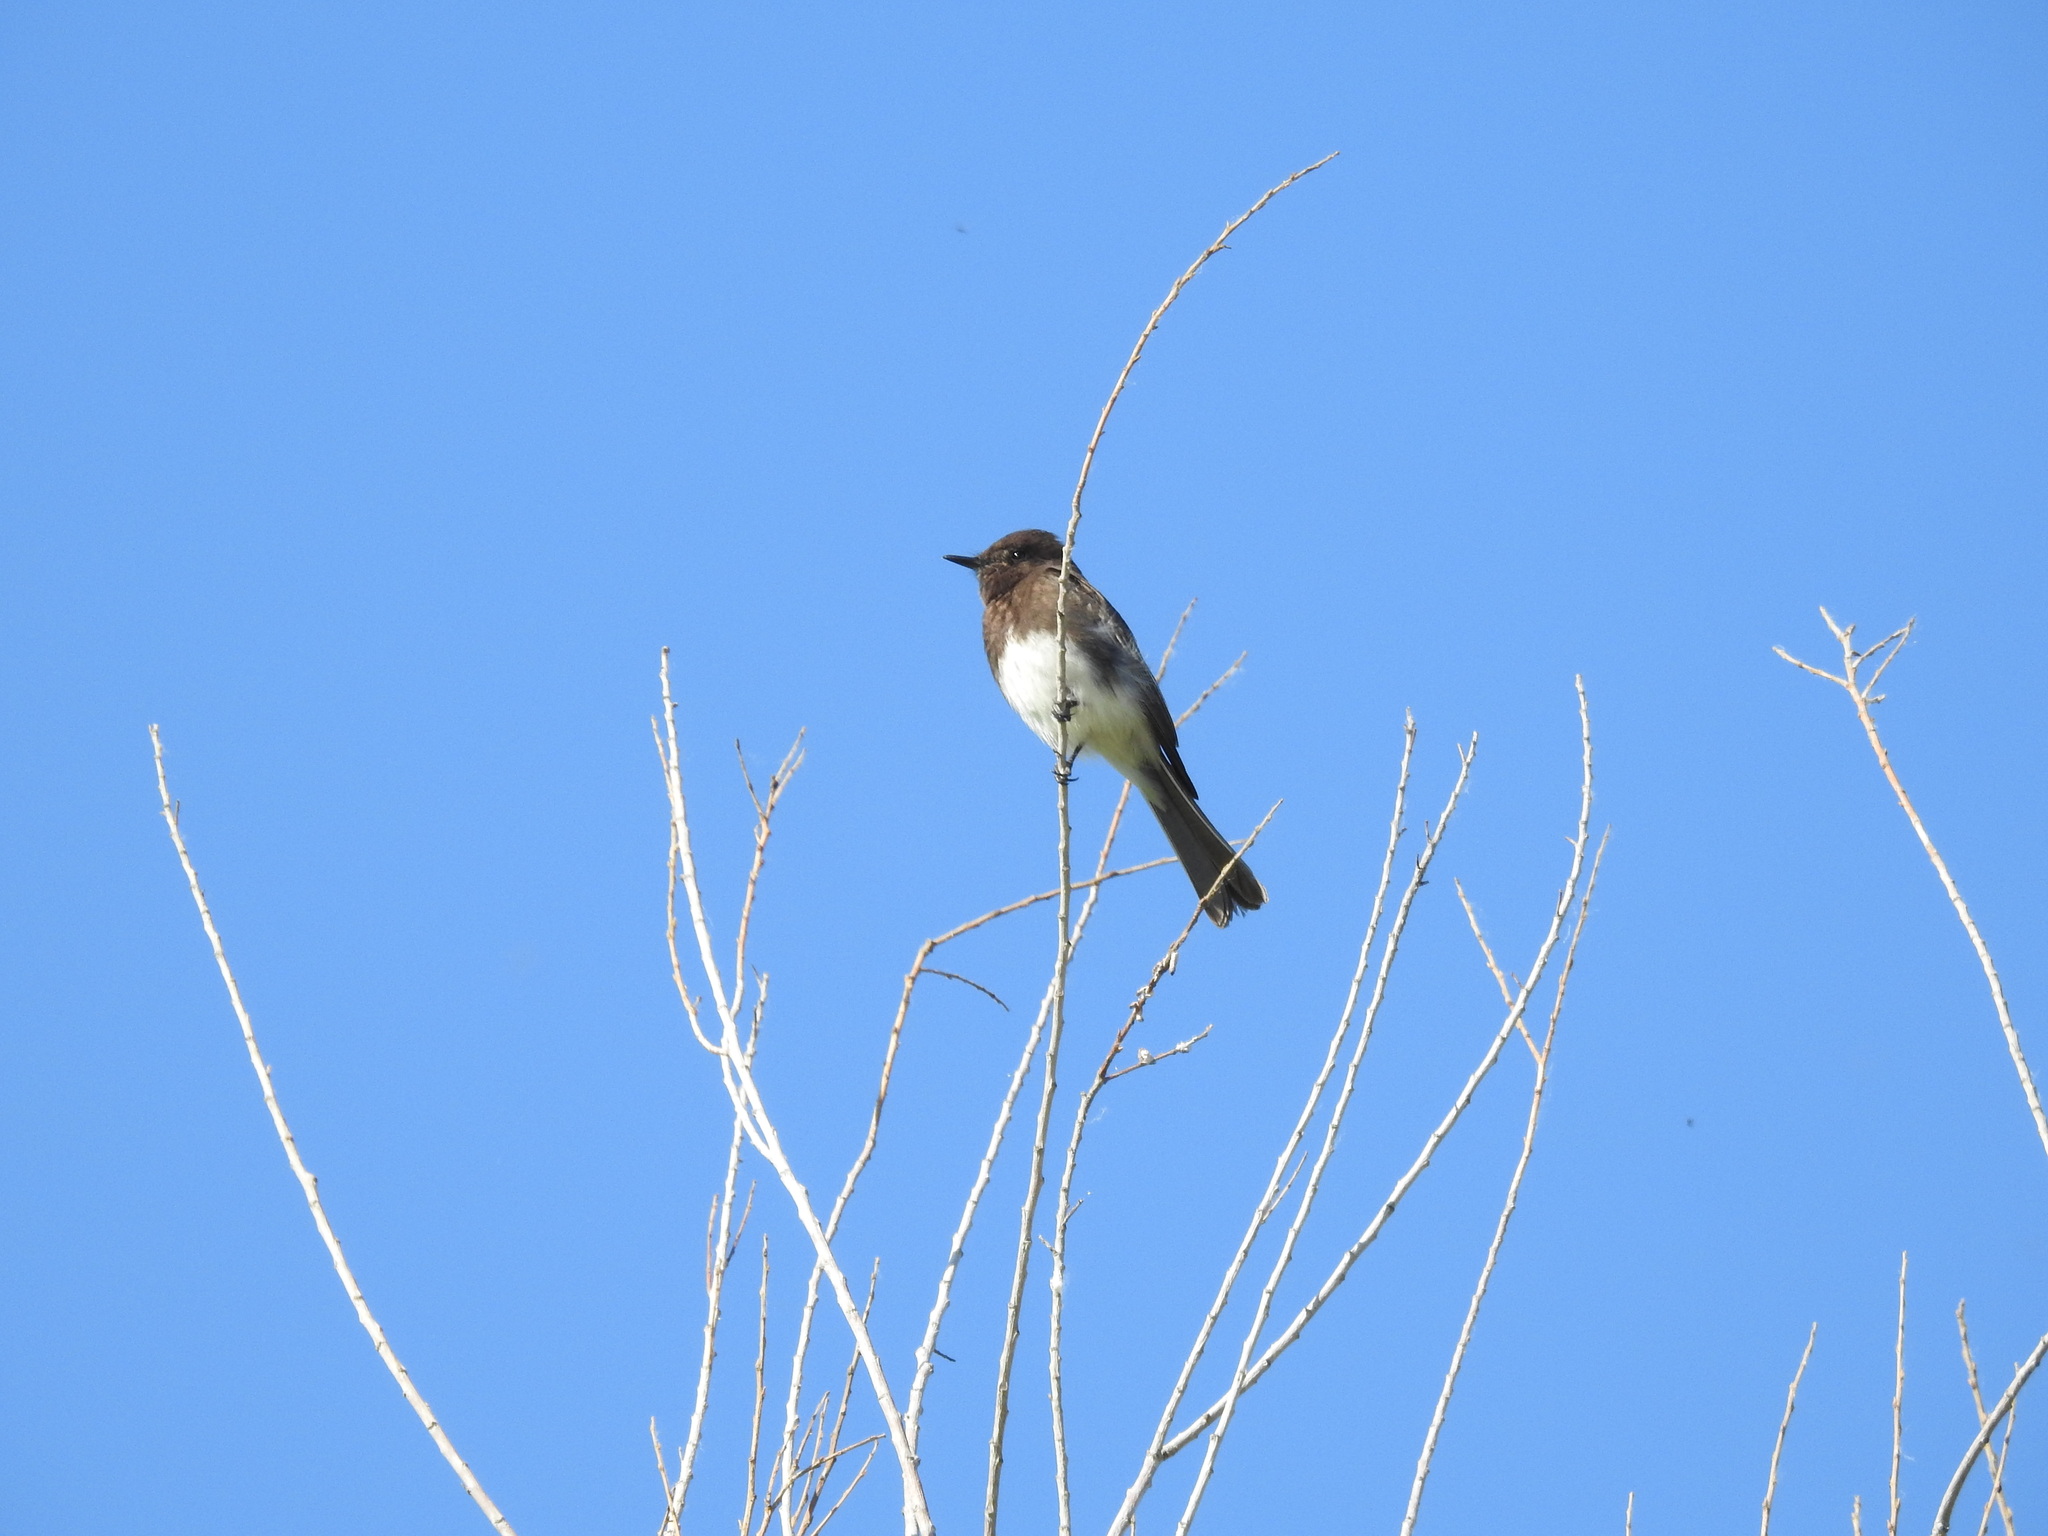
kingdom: Animalia
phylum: Chordata
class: Aves
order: Passeriformes
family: Tyrannidae
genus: Sayornis
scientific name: Sayornis nigricans
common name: Black phoebe
